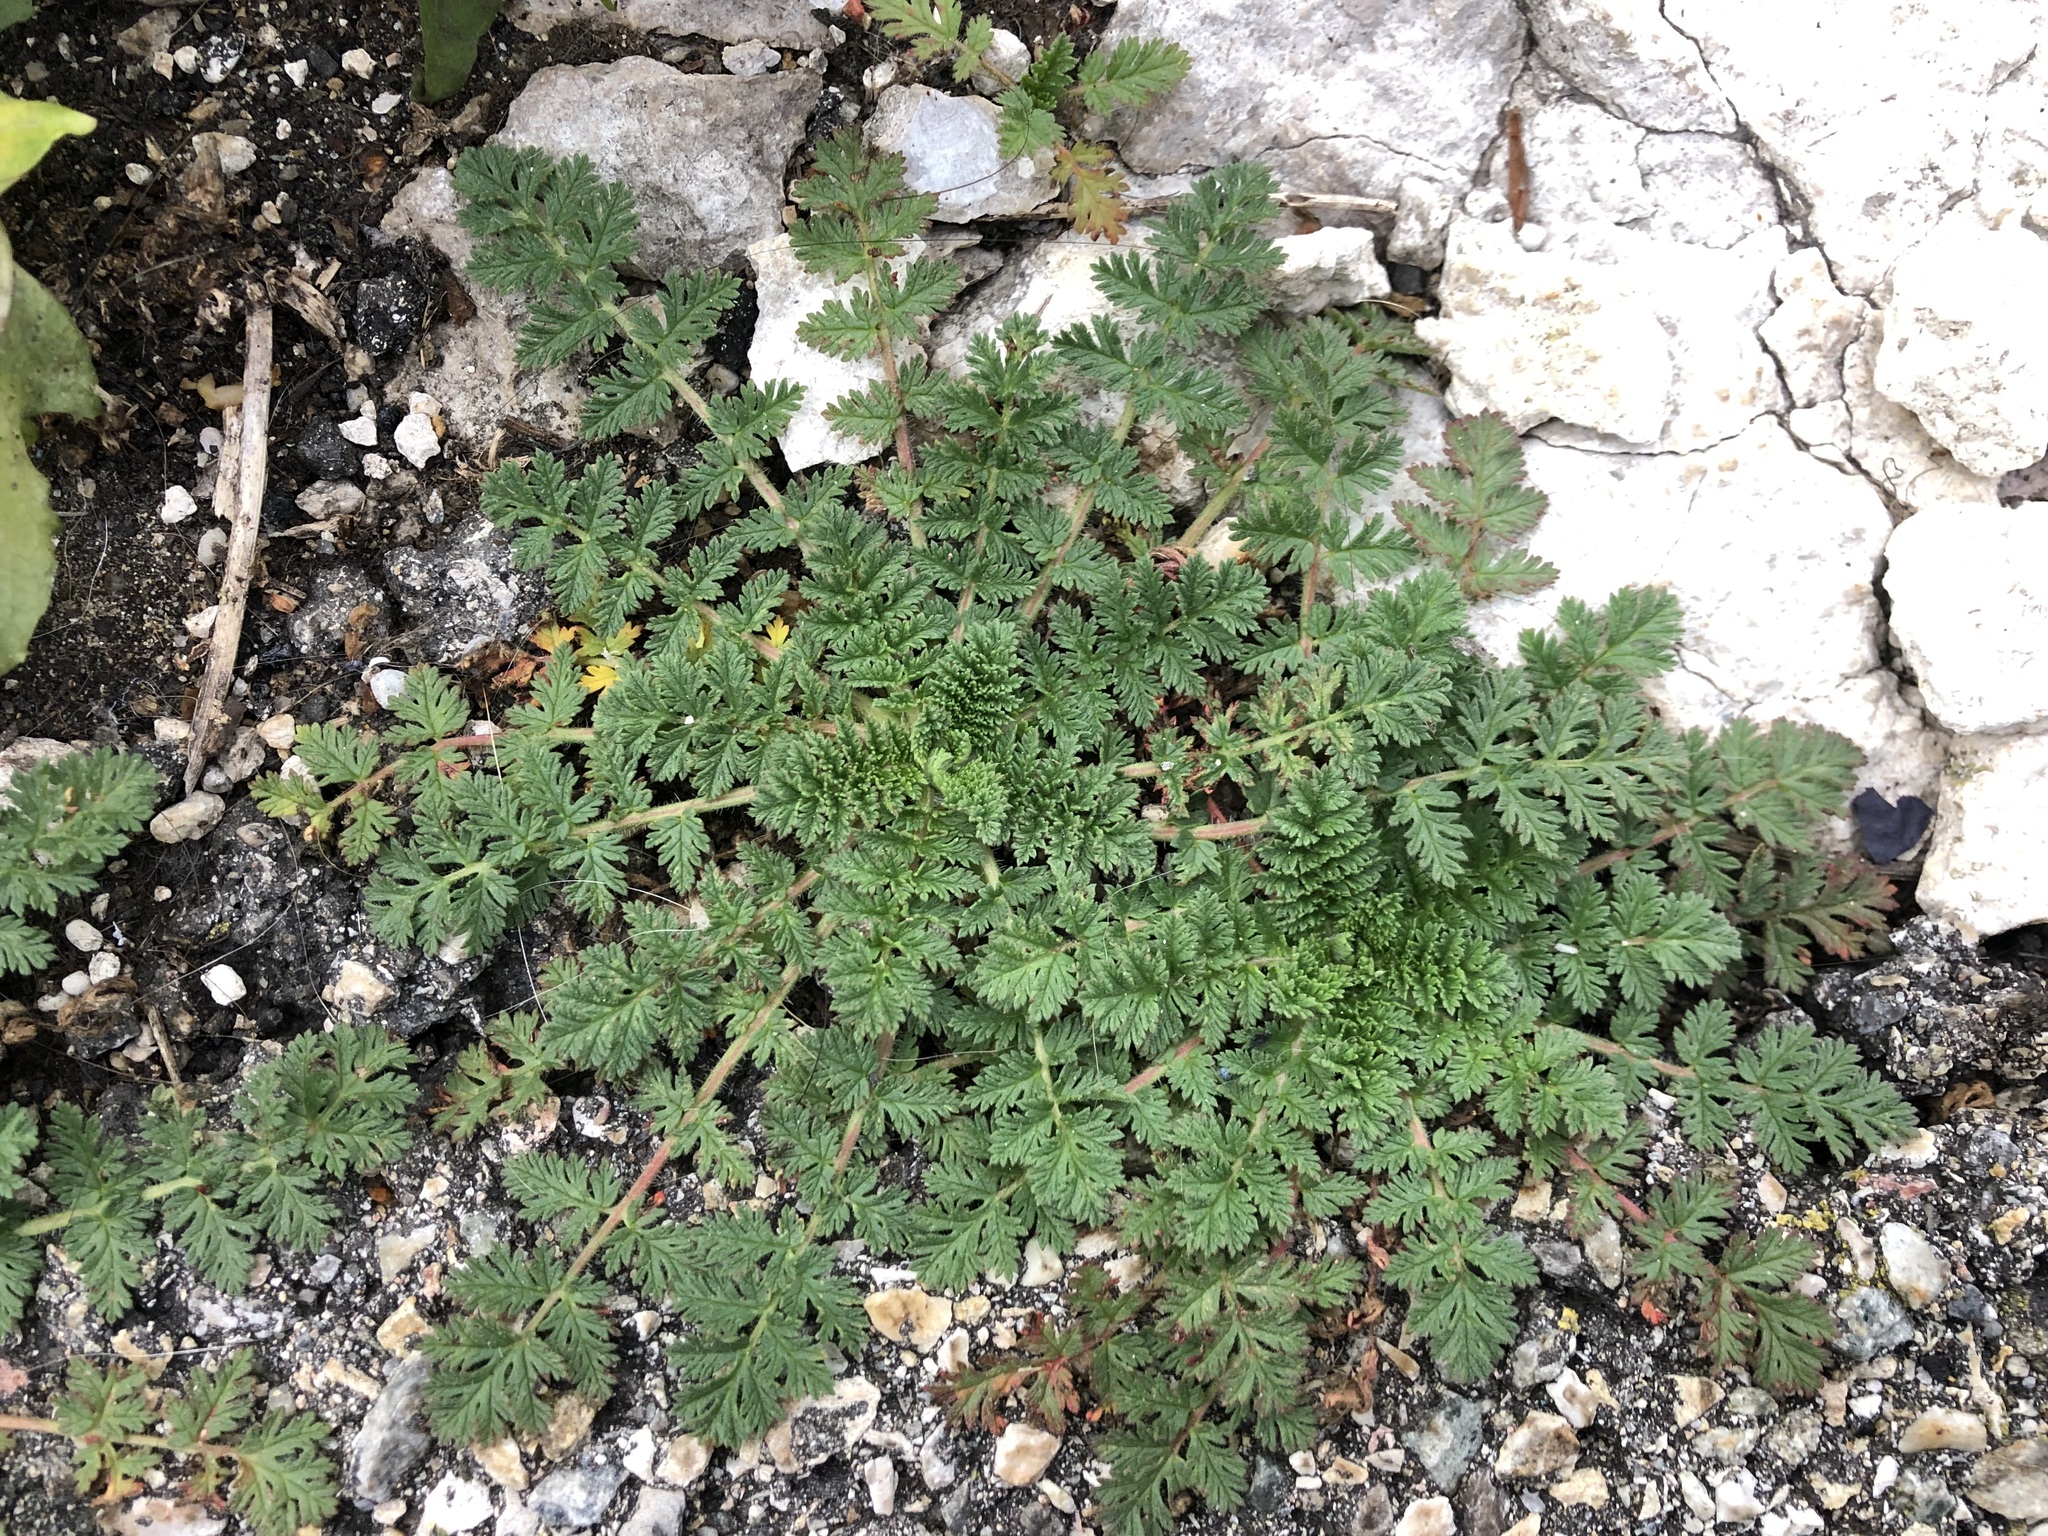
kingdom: Plantae
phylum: Tracheophyta
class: Magnoliopsida
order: Geraniales
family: Geraniaceae
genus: Erodium
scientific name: Erodium cicutarium
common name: Common stork's-bill
